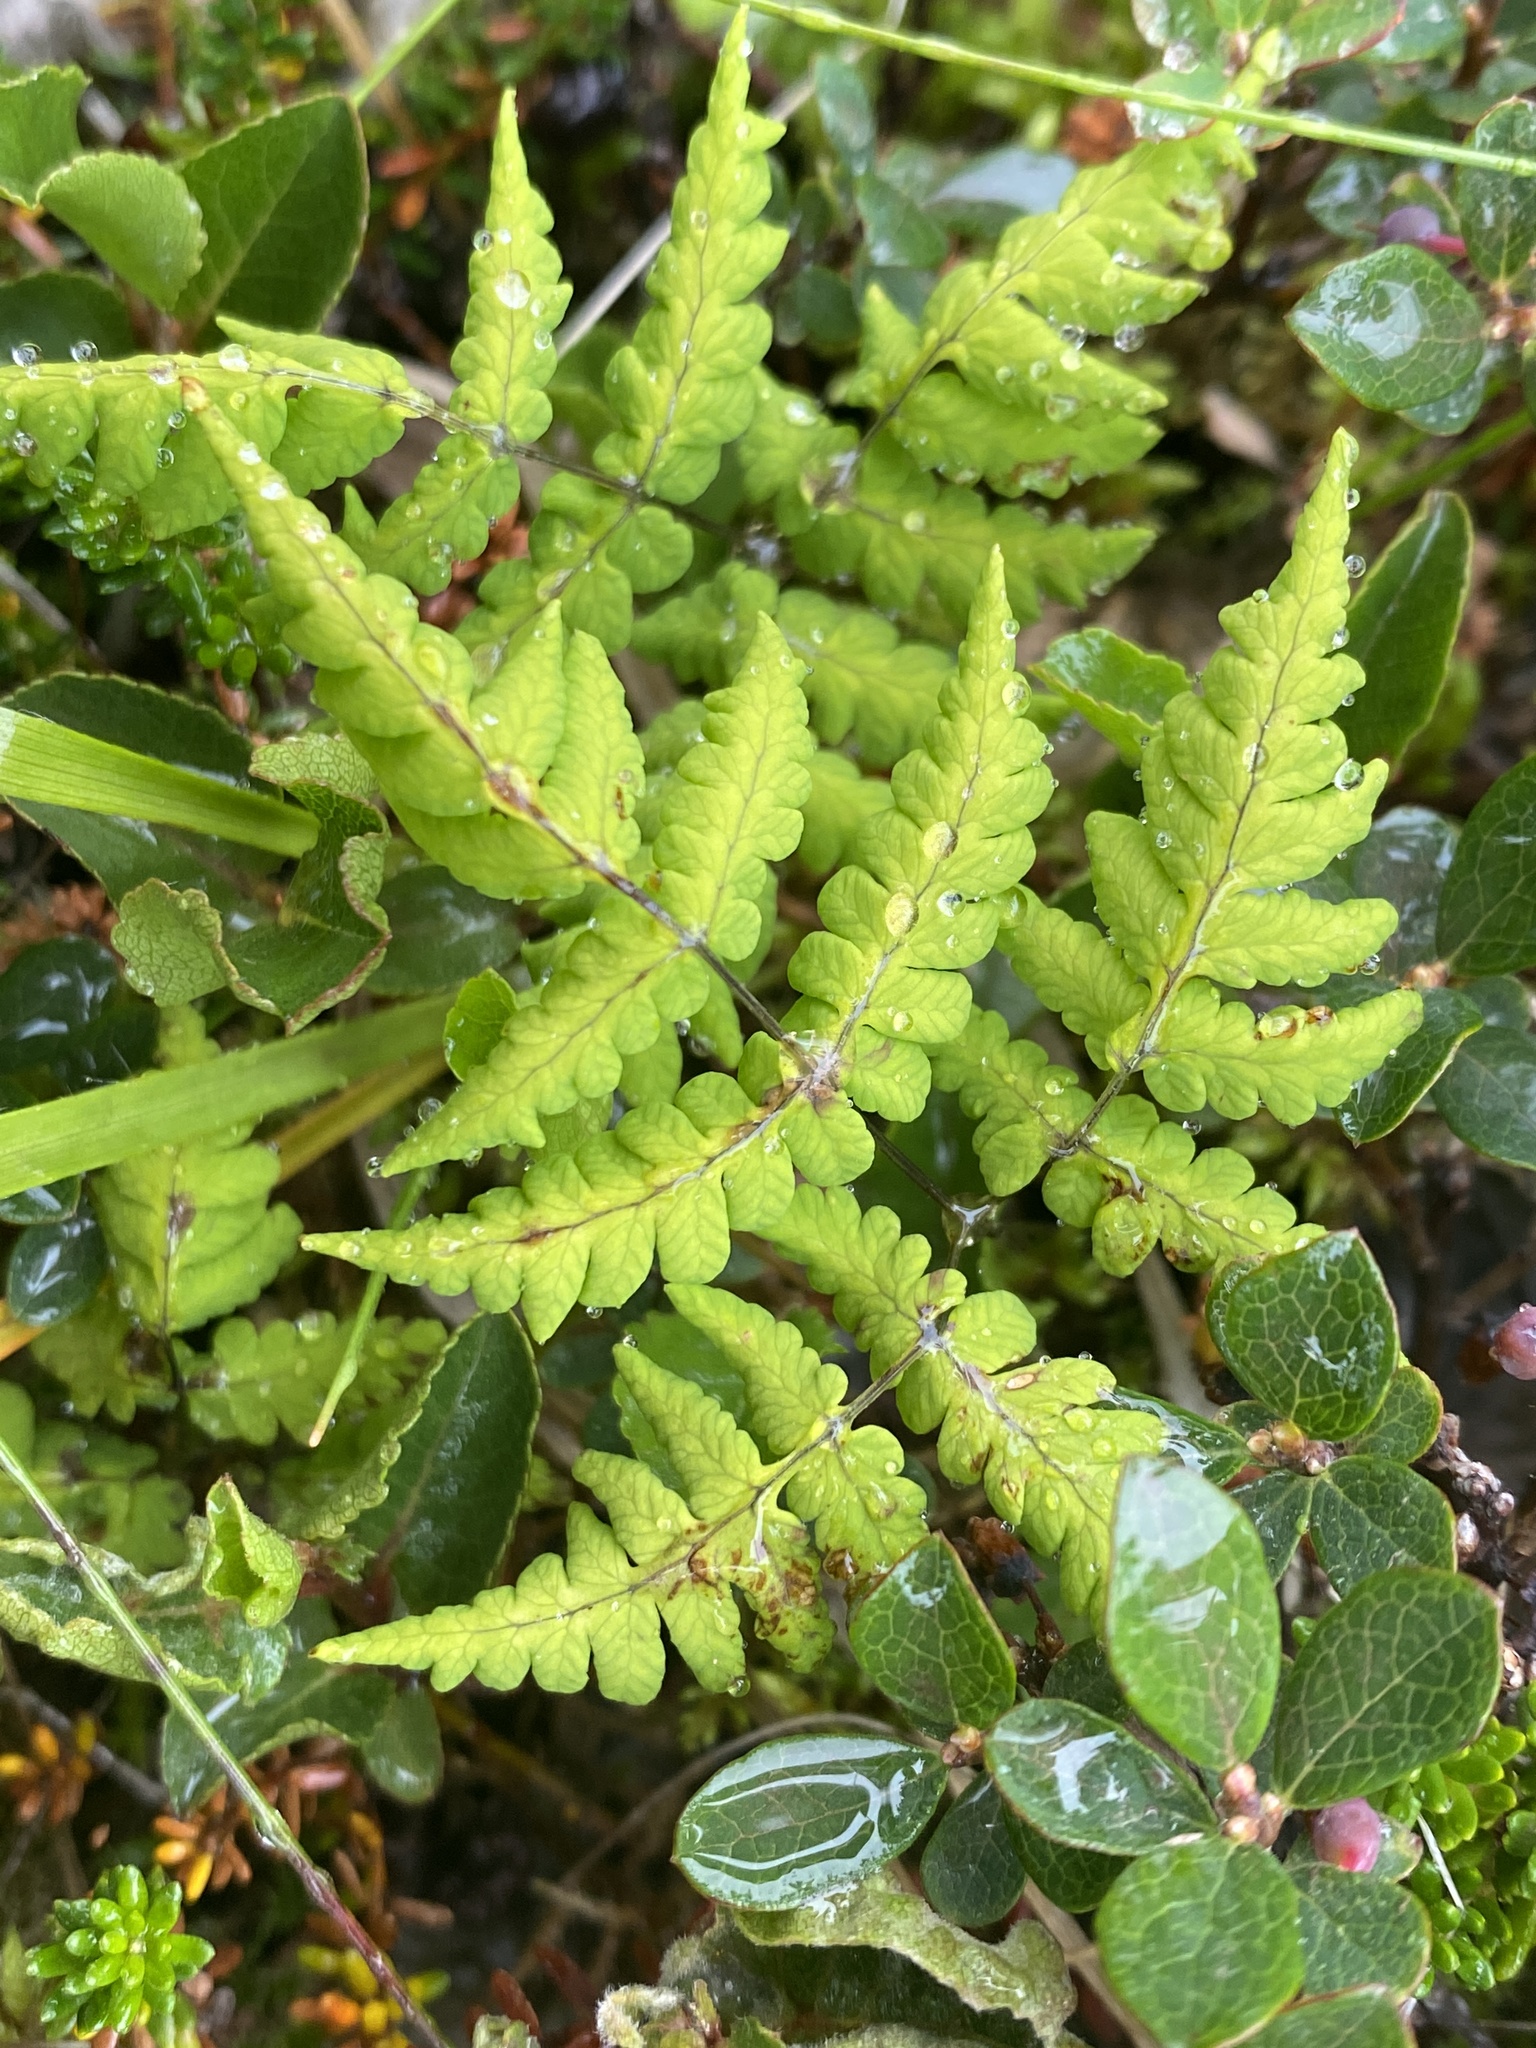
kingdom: Plantae
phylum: Tracheophyta
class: Polypodiopsida
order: Polypodiales
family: Cystopteridaceae
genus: Gymnocarpium
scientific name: Gymnocarpium dryopteris
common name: Oak fern
